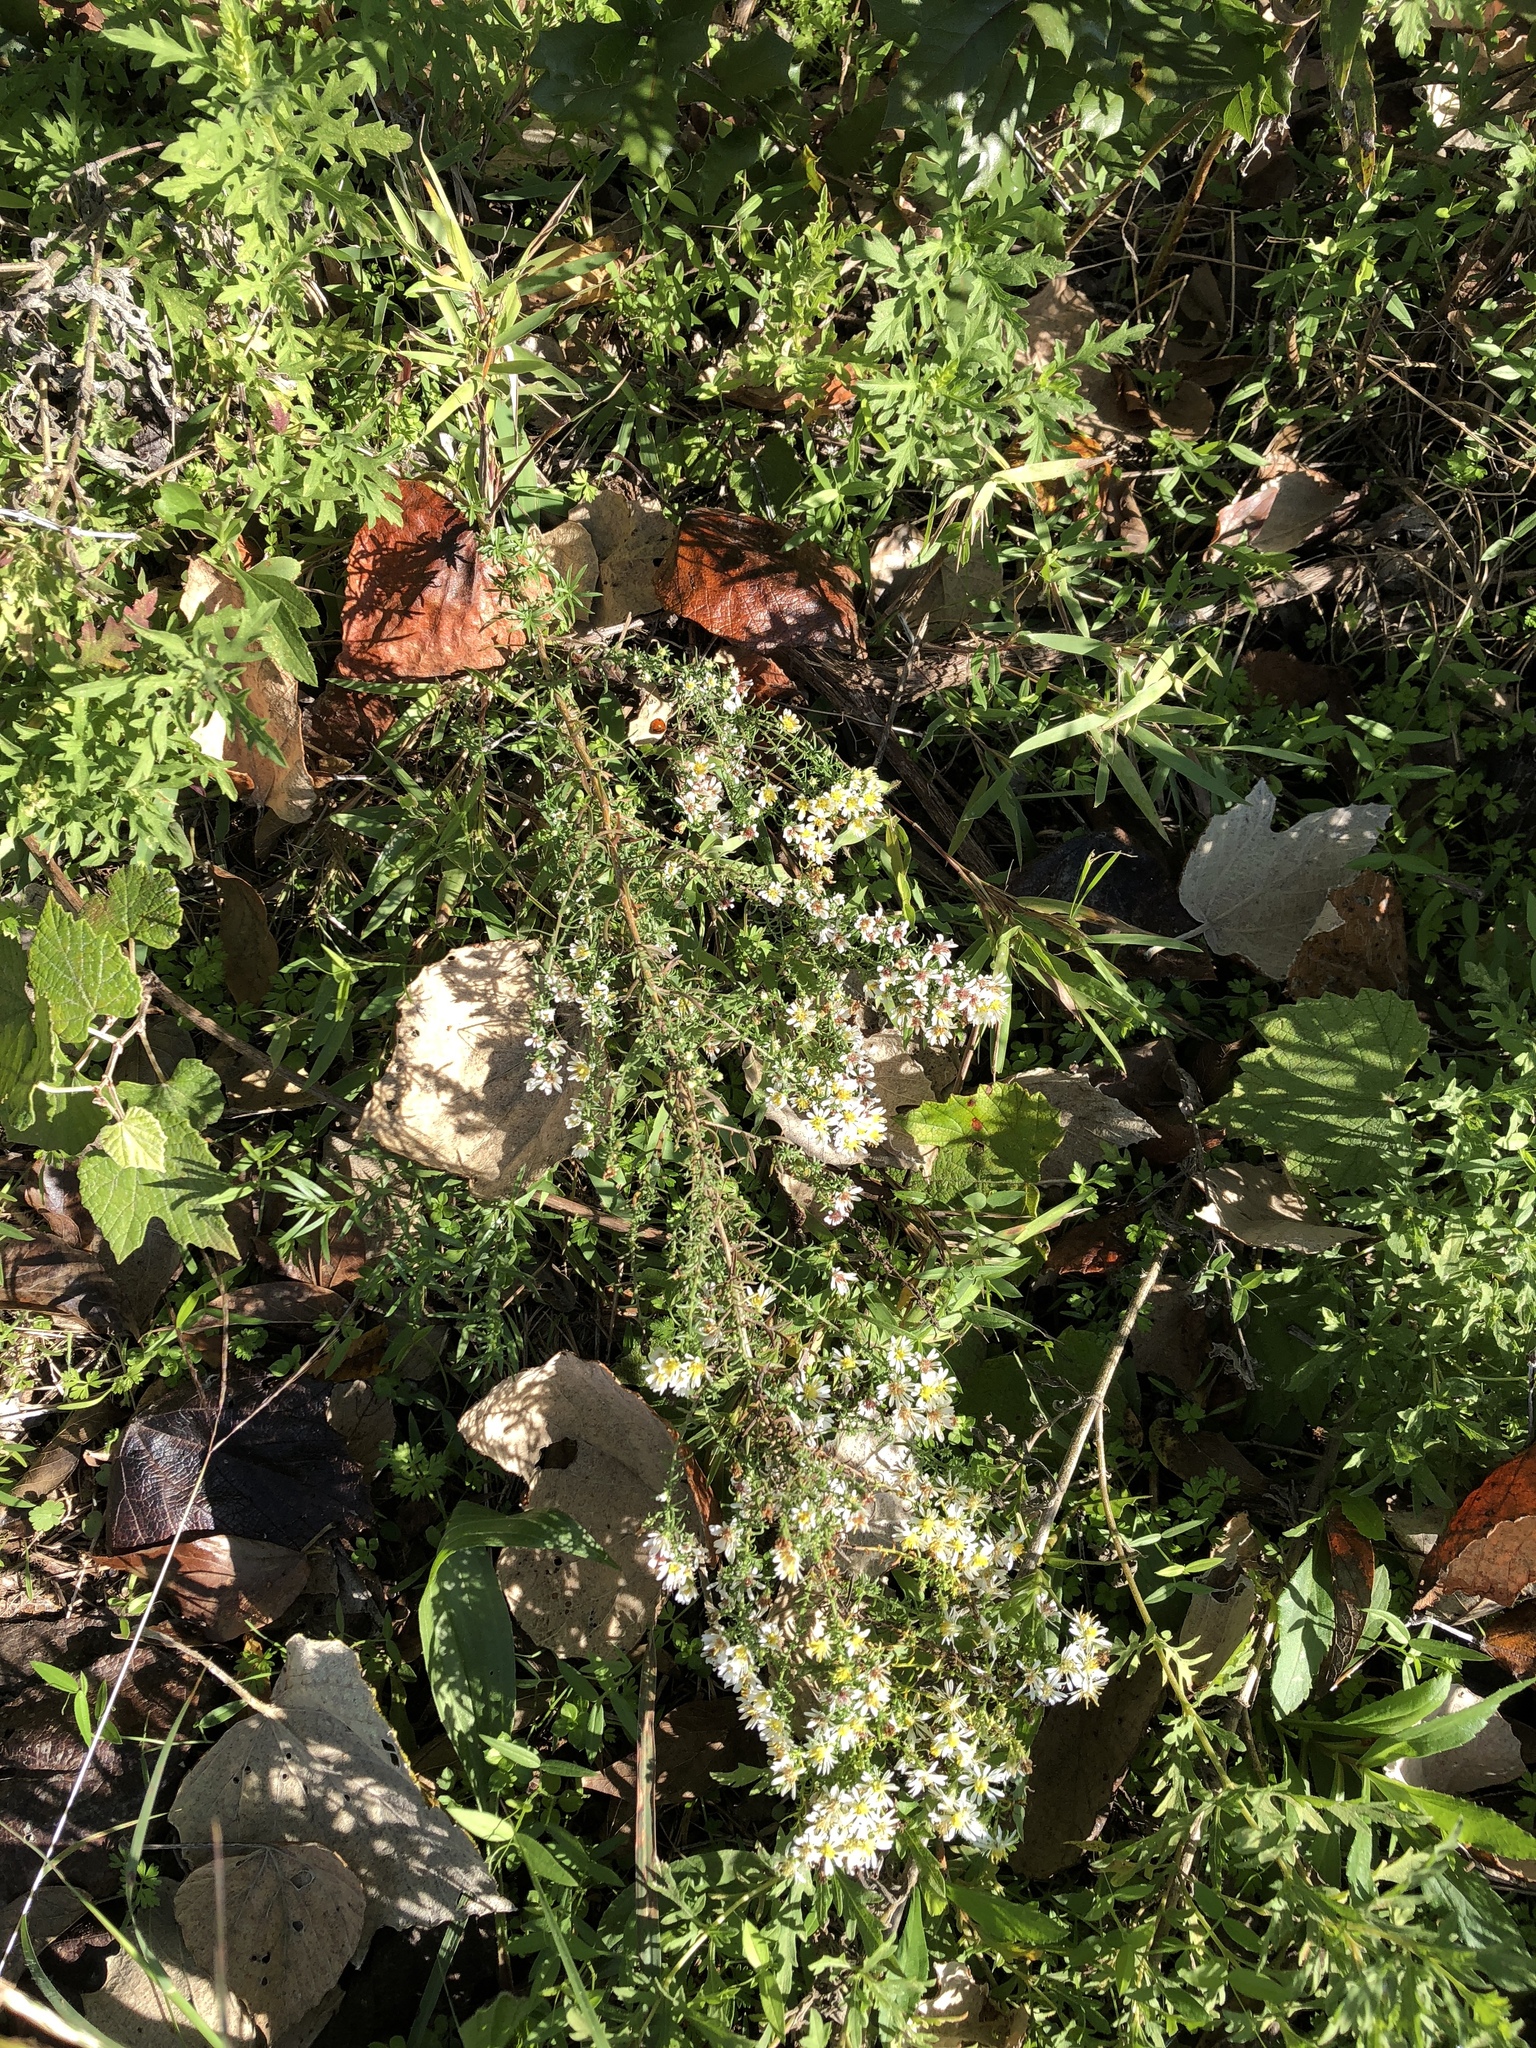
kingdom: Plantae
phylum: Tracheophyta
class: Magnoliopsida
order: Asterales
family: Asteraceae
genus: Symphyotrichum
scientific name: Symphyotrichum ericoides
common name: Heath aster
